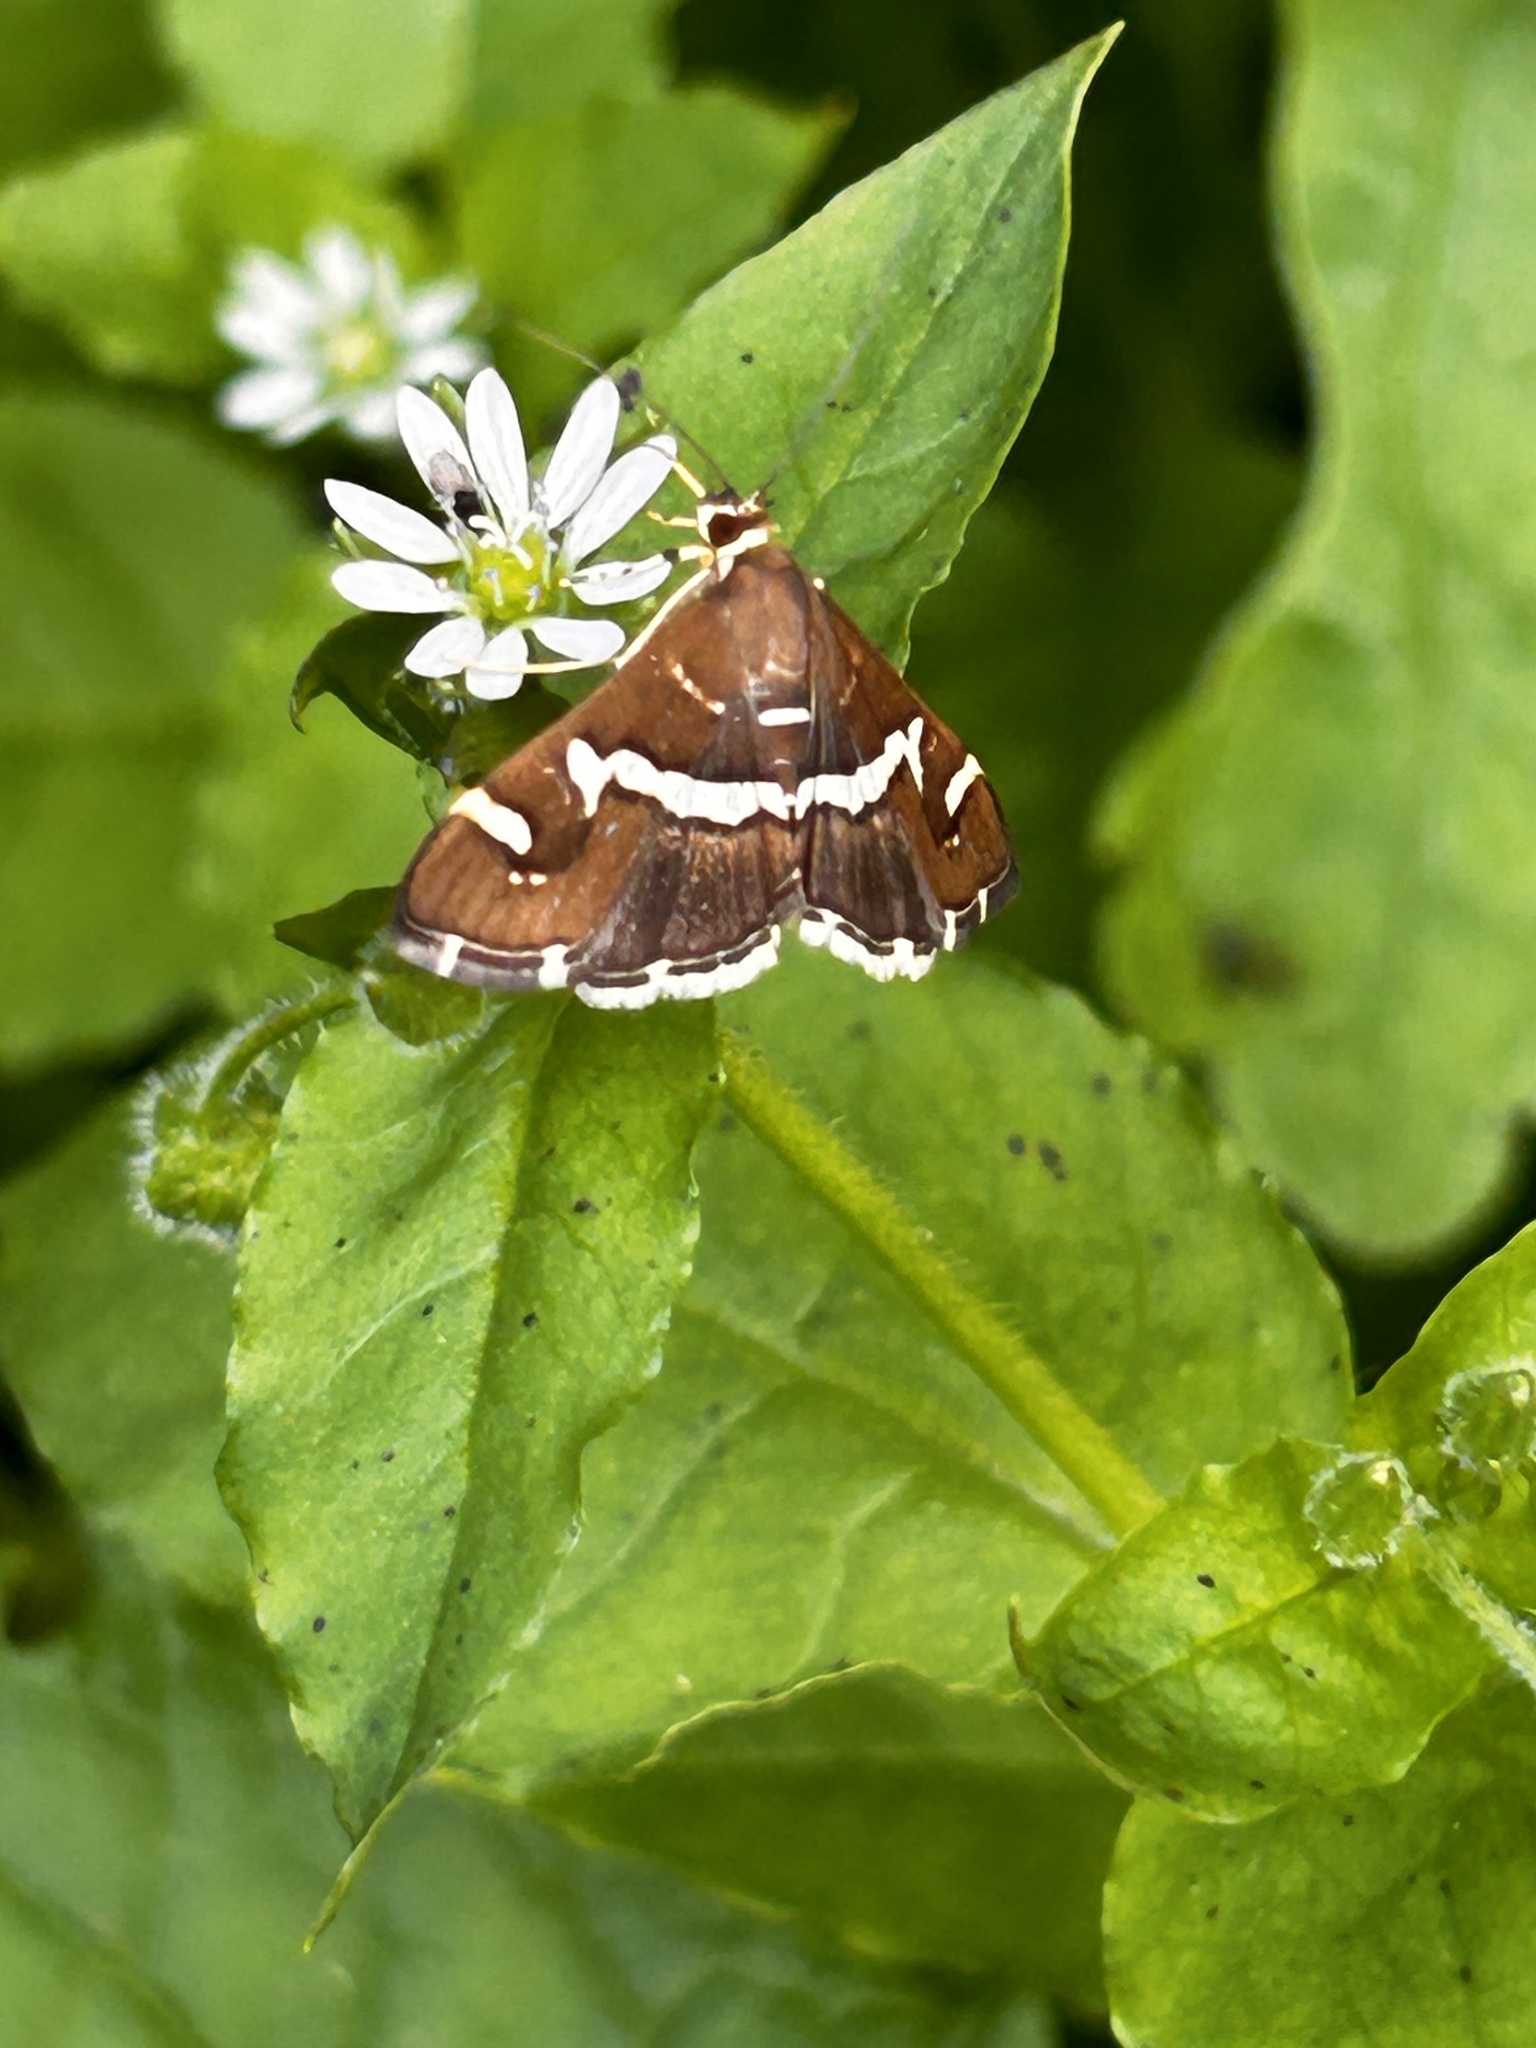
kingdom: Animalia
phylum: Arthropoda
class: Insecta
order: Lepidoptera
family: Crambidae
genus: Spoladea
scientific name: Spoladea recurvalis
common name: Beet webworm moth
